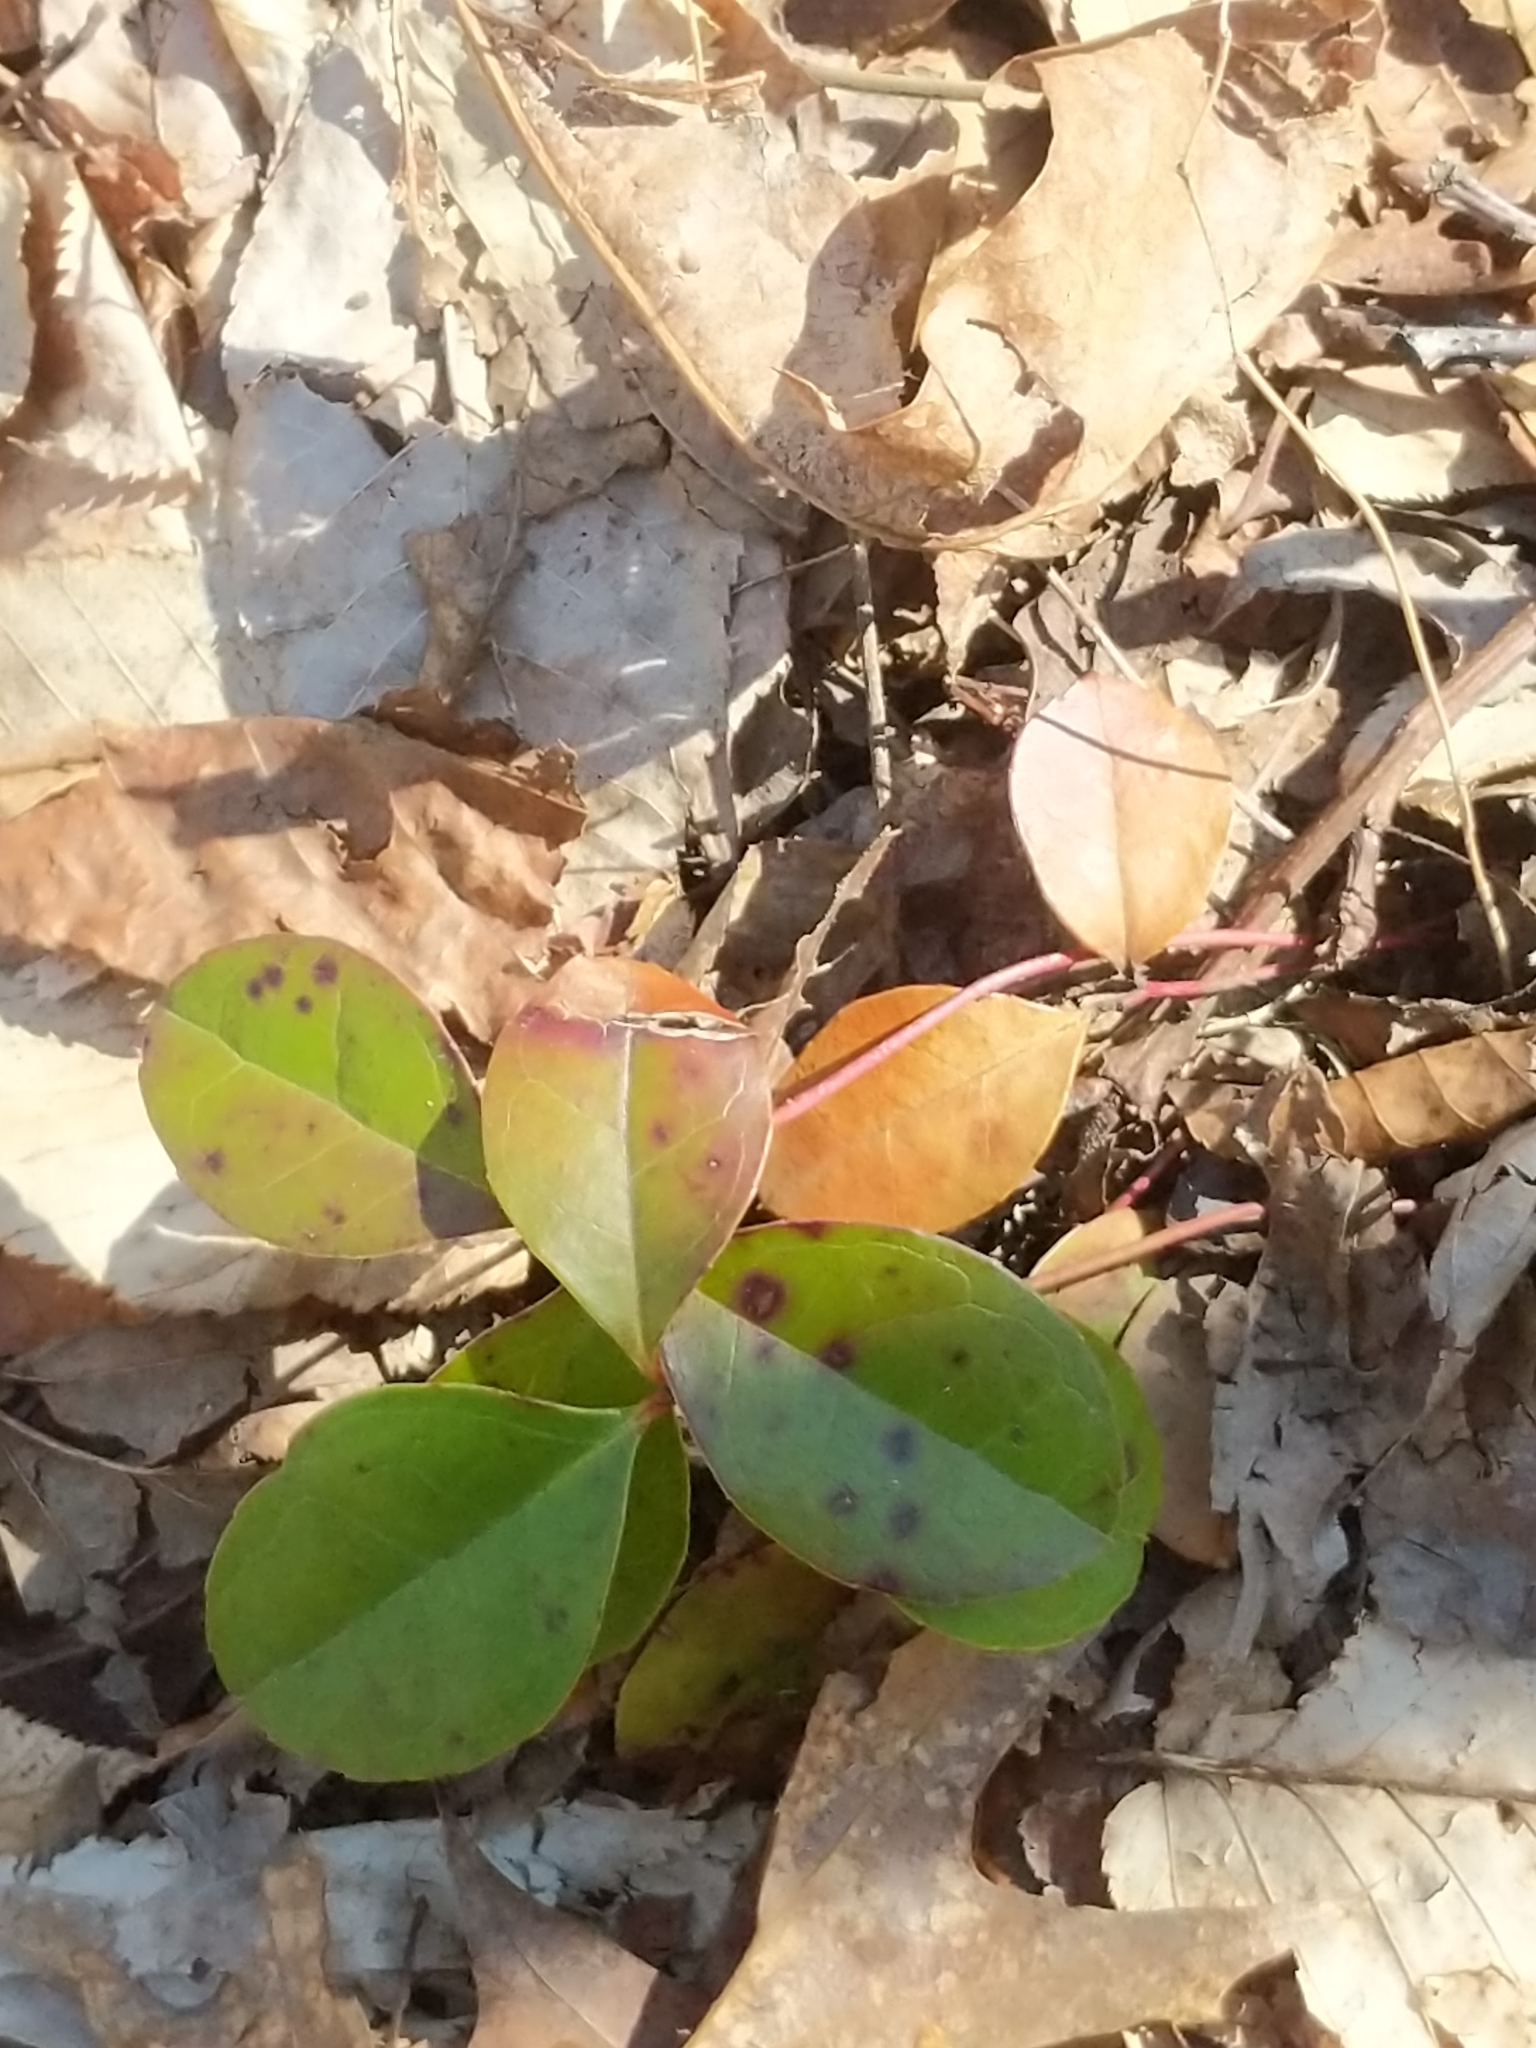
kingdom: Plantae
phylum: Tracheophyta
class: Magnoliopsida
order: Ericales
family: Ericaceae
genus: Gaultheria
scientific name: Gaultheria procumbens
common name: Checkerberry
